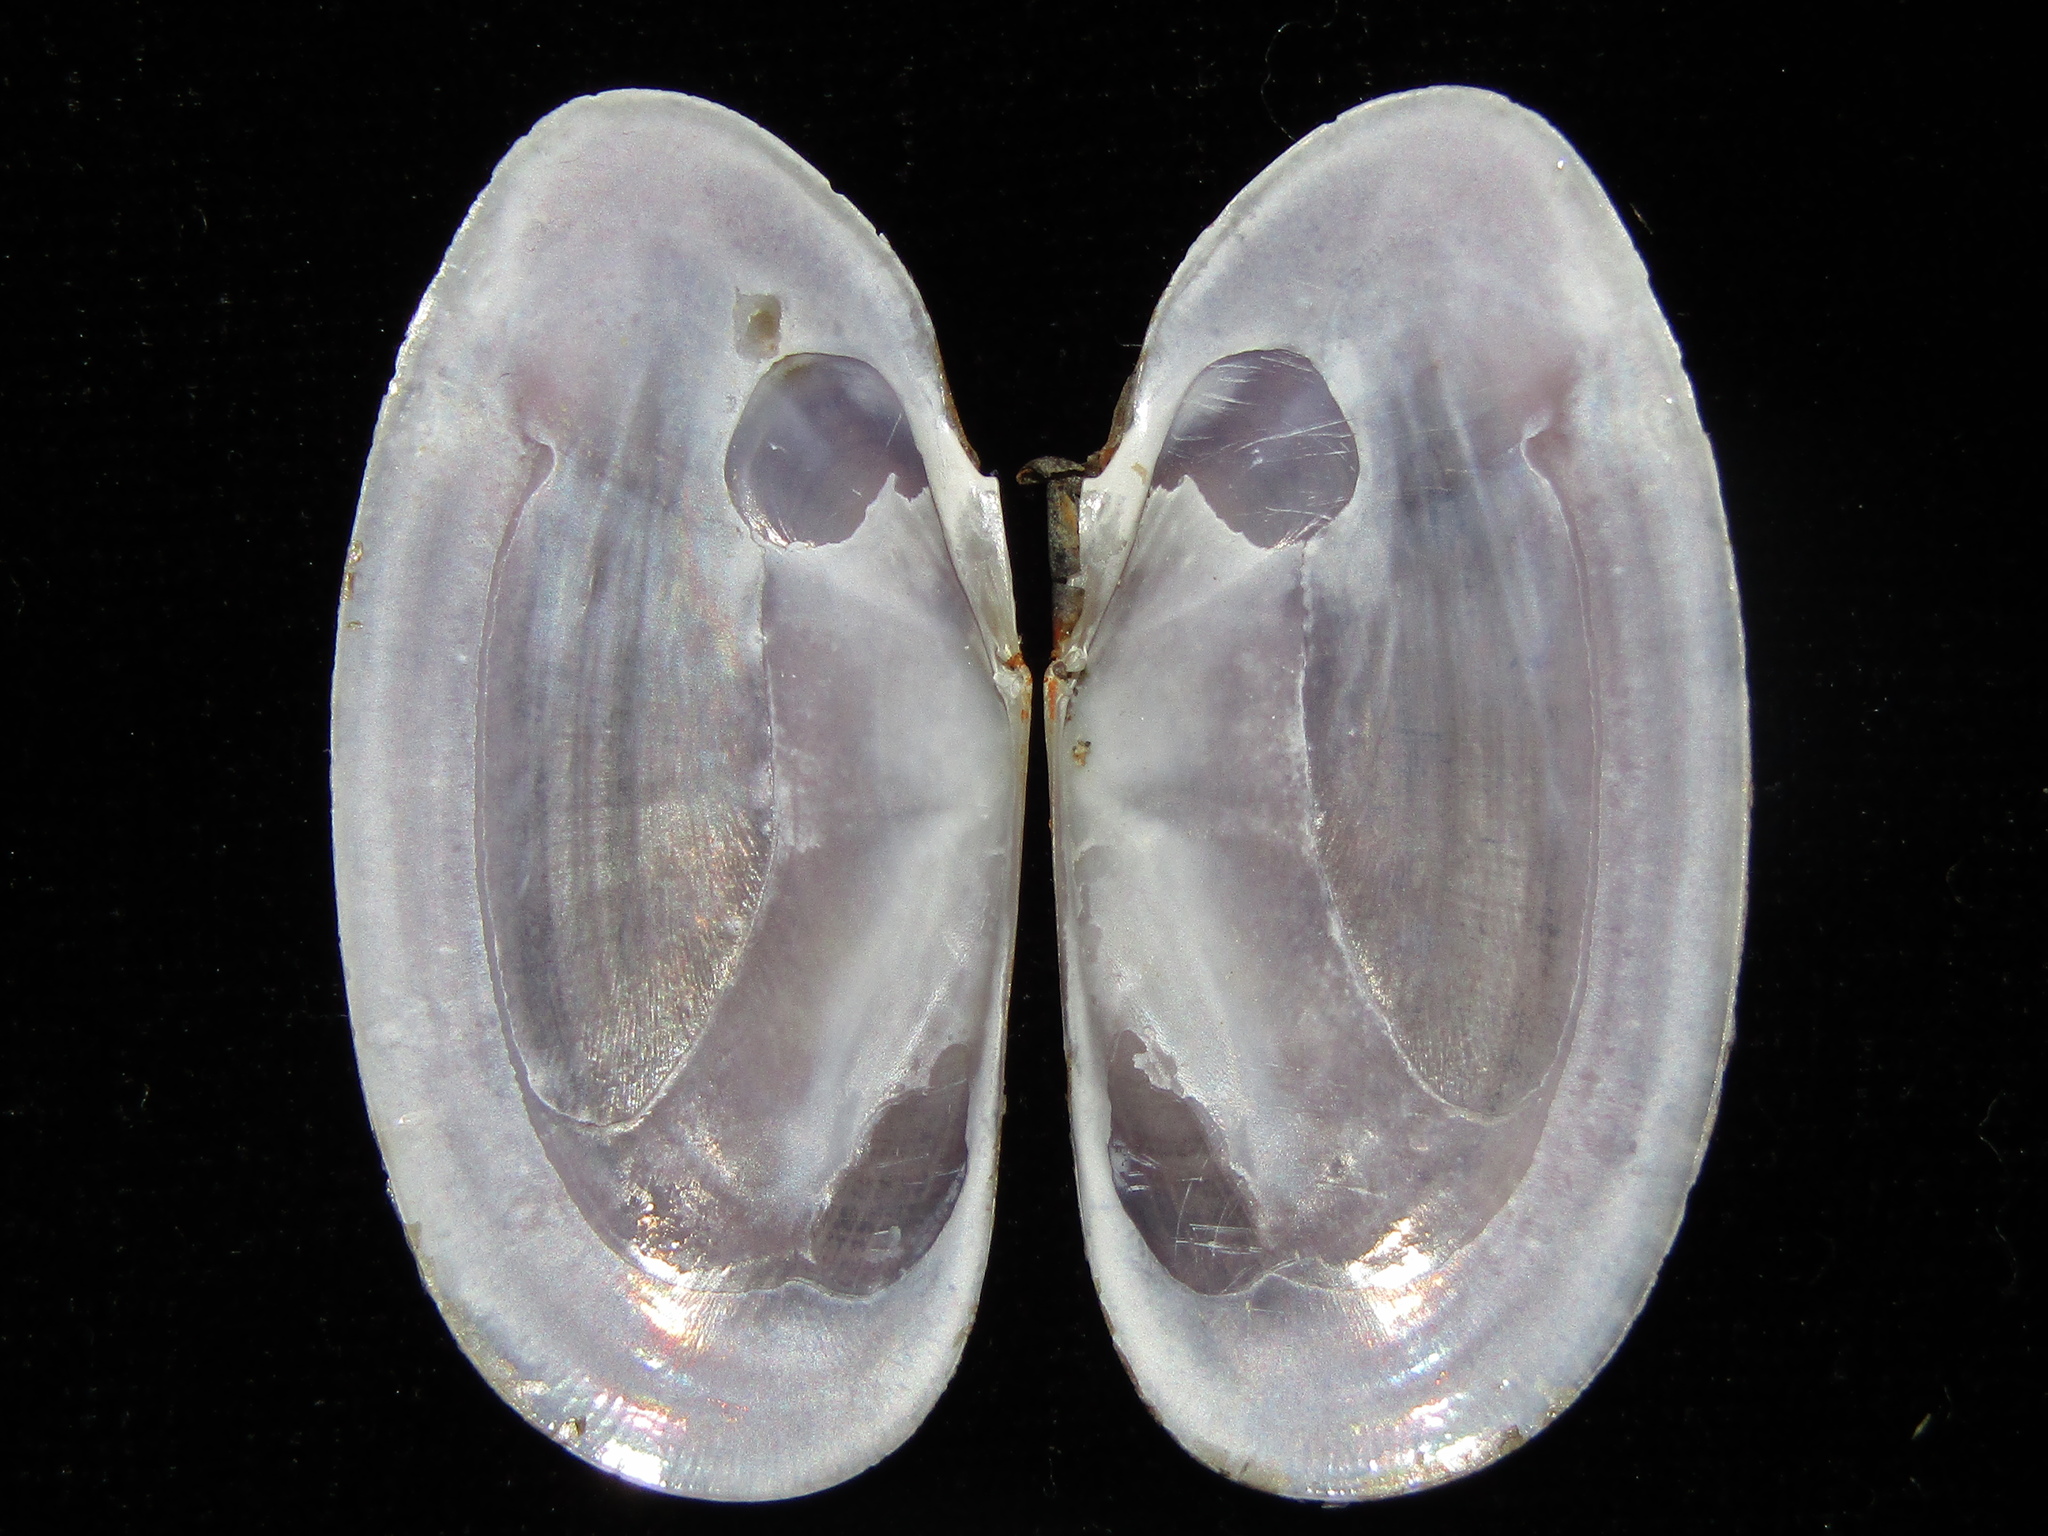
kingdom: Animalia
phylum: Mollusca
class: Bivalvia
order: Cardiida
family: Psammobiidae
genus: Hiatula
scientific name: Hiatula nitida
